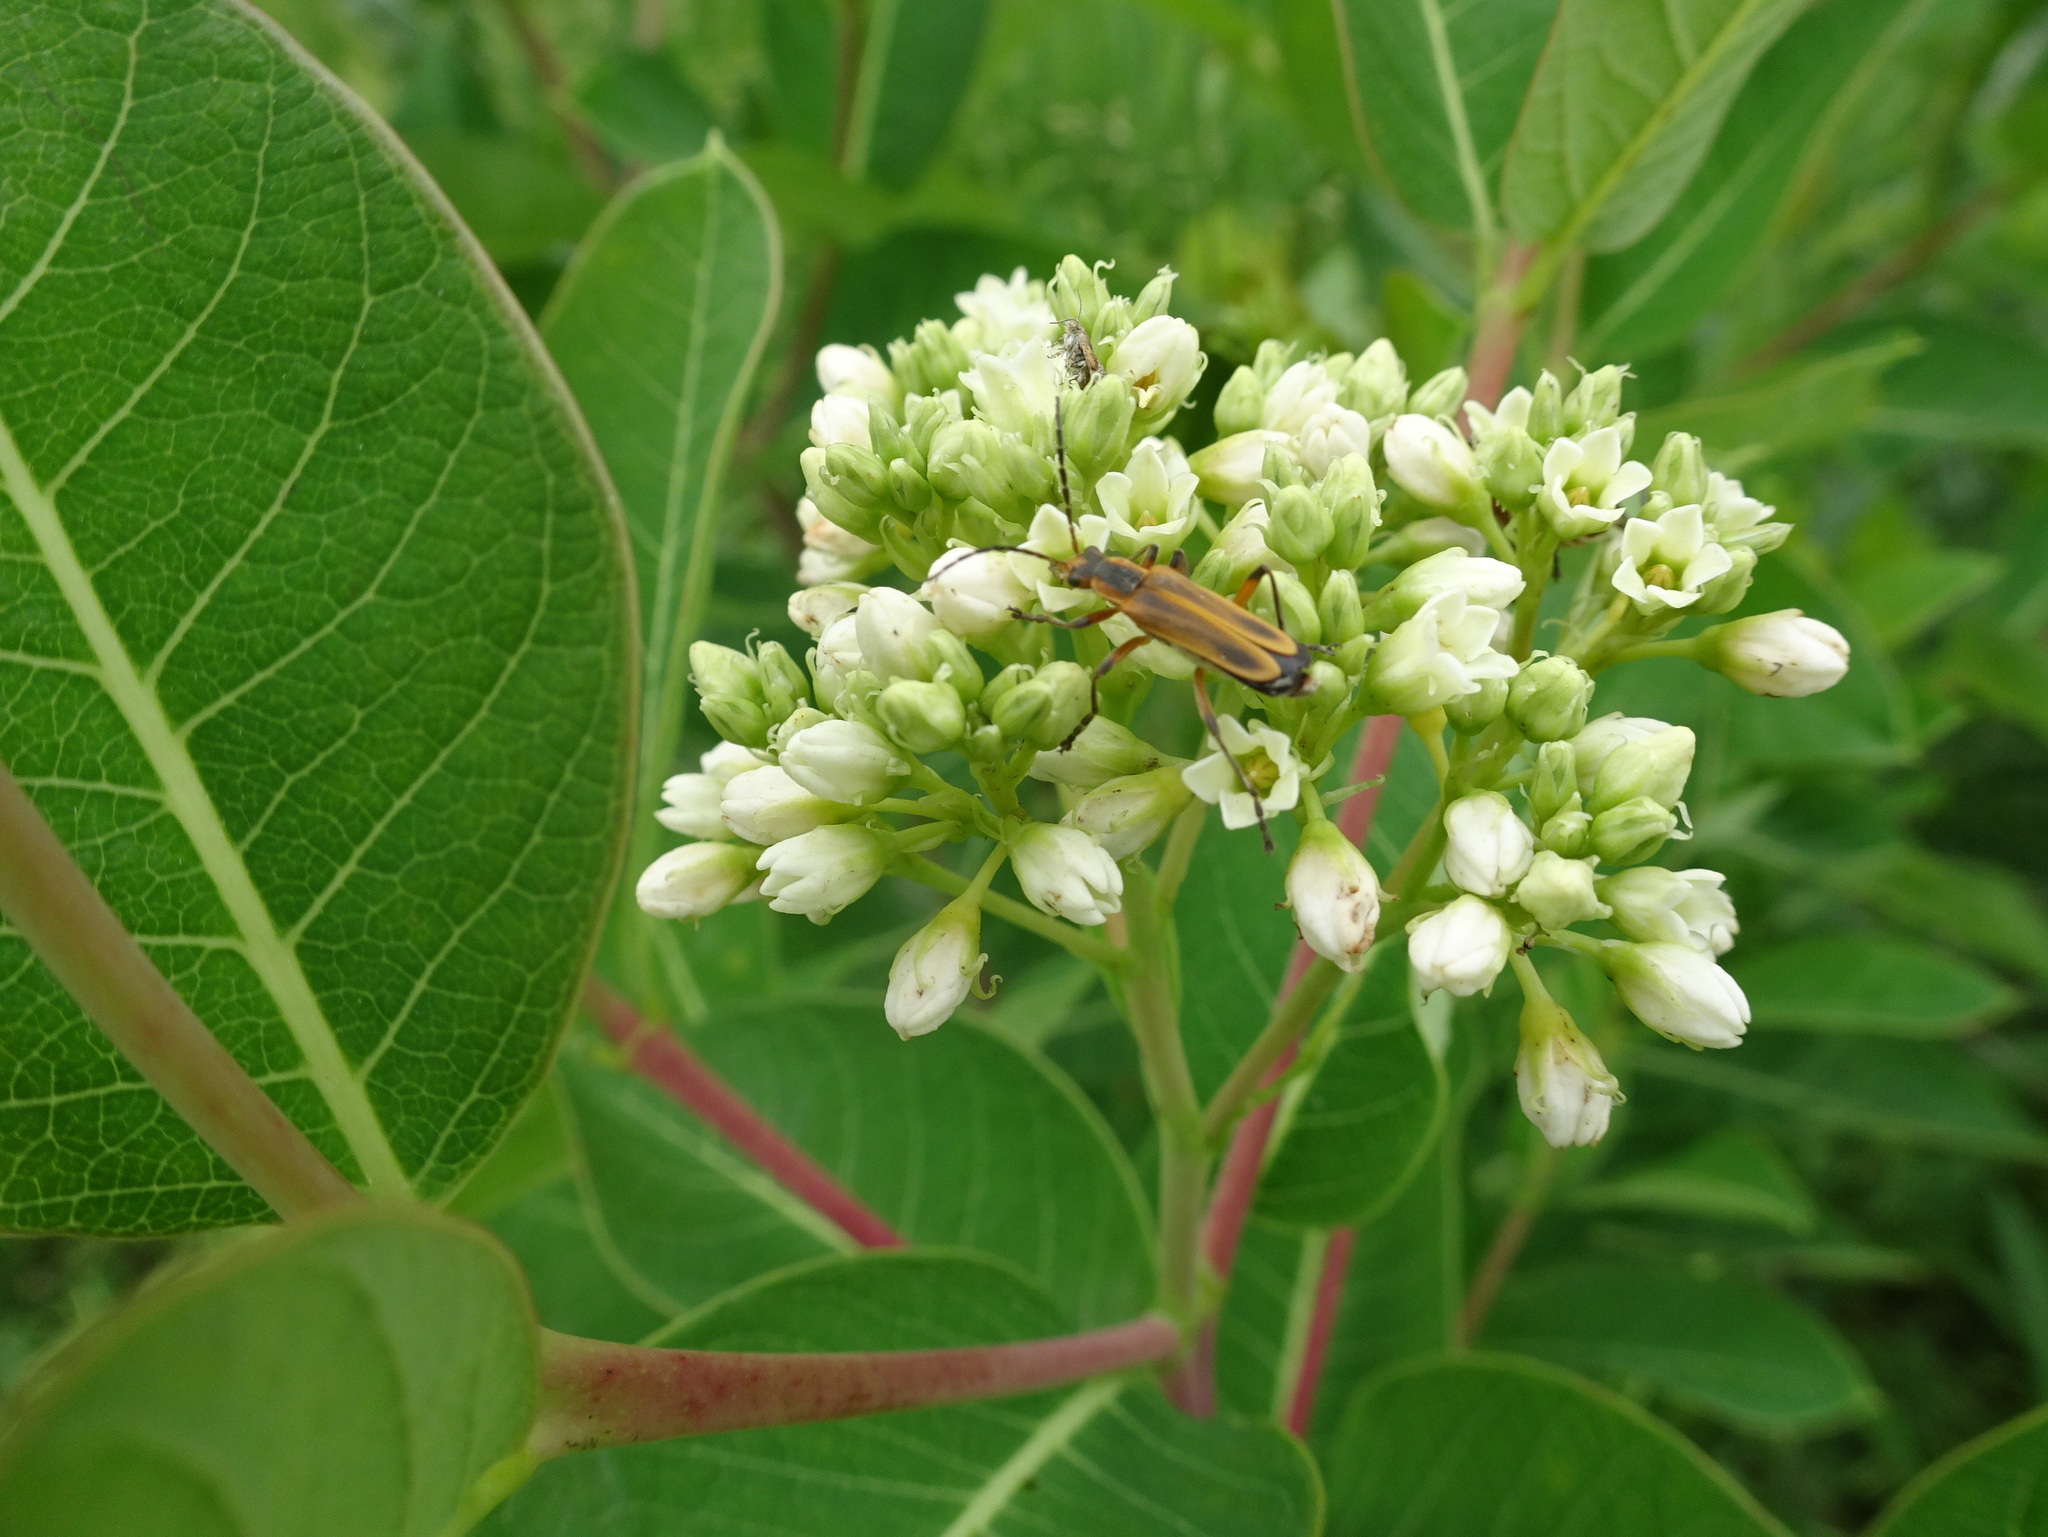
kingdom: Animalia
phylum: Arthropoda
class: Insecta
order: Coleoptera
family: Cantharidae
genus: Chauliognathus
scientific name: Chauliognathus marginatus
